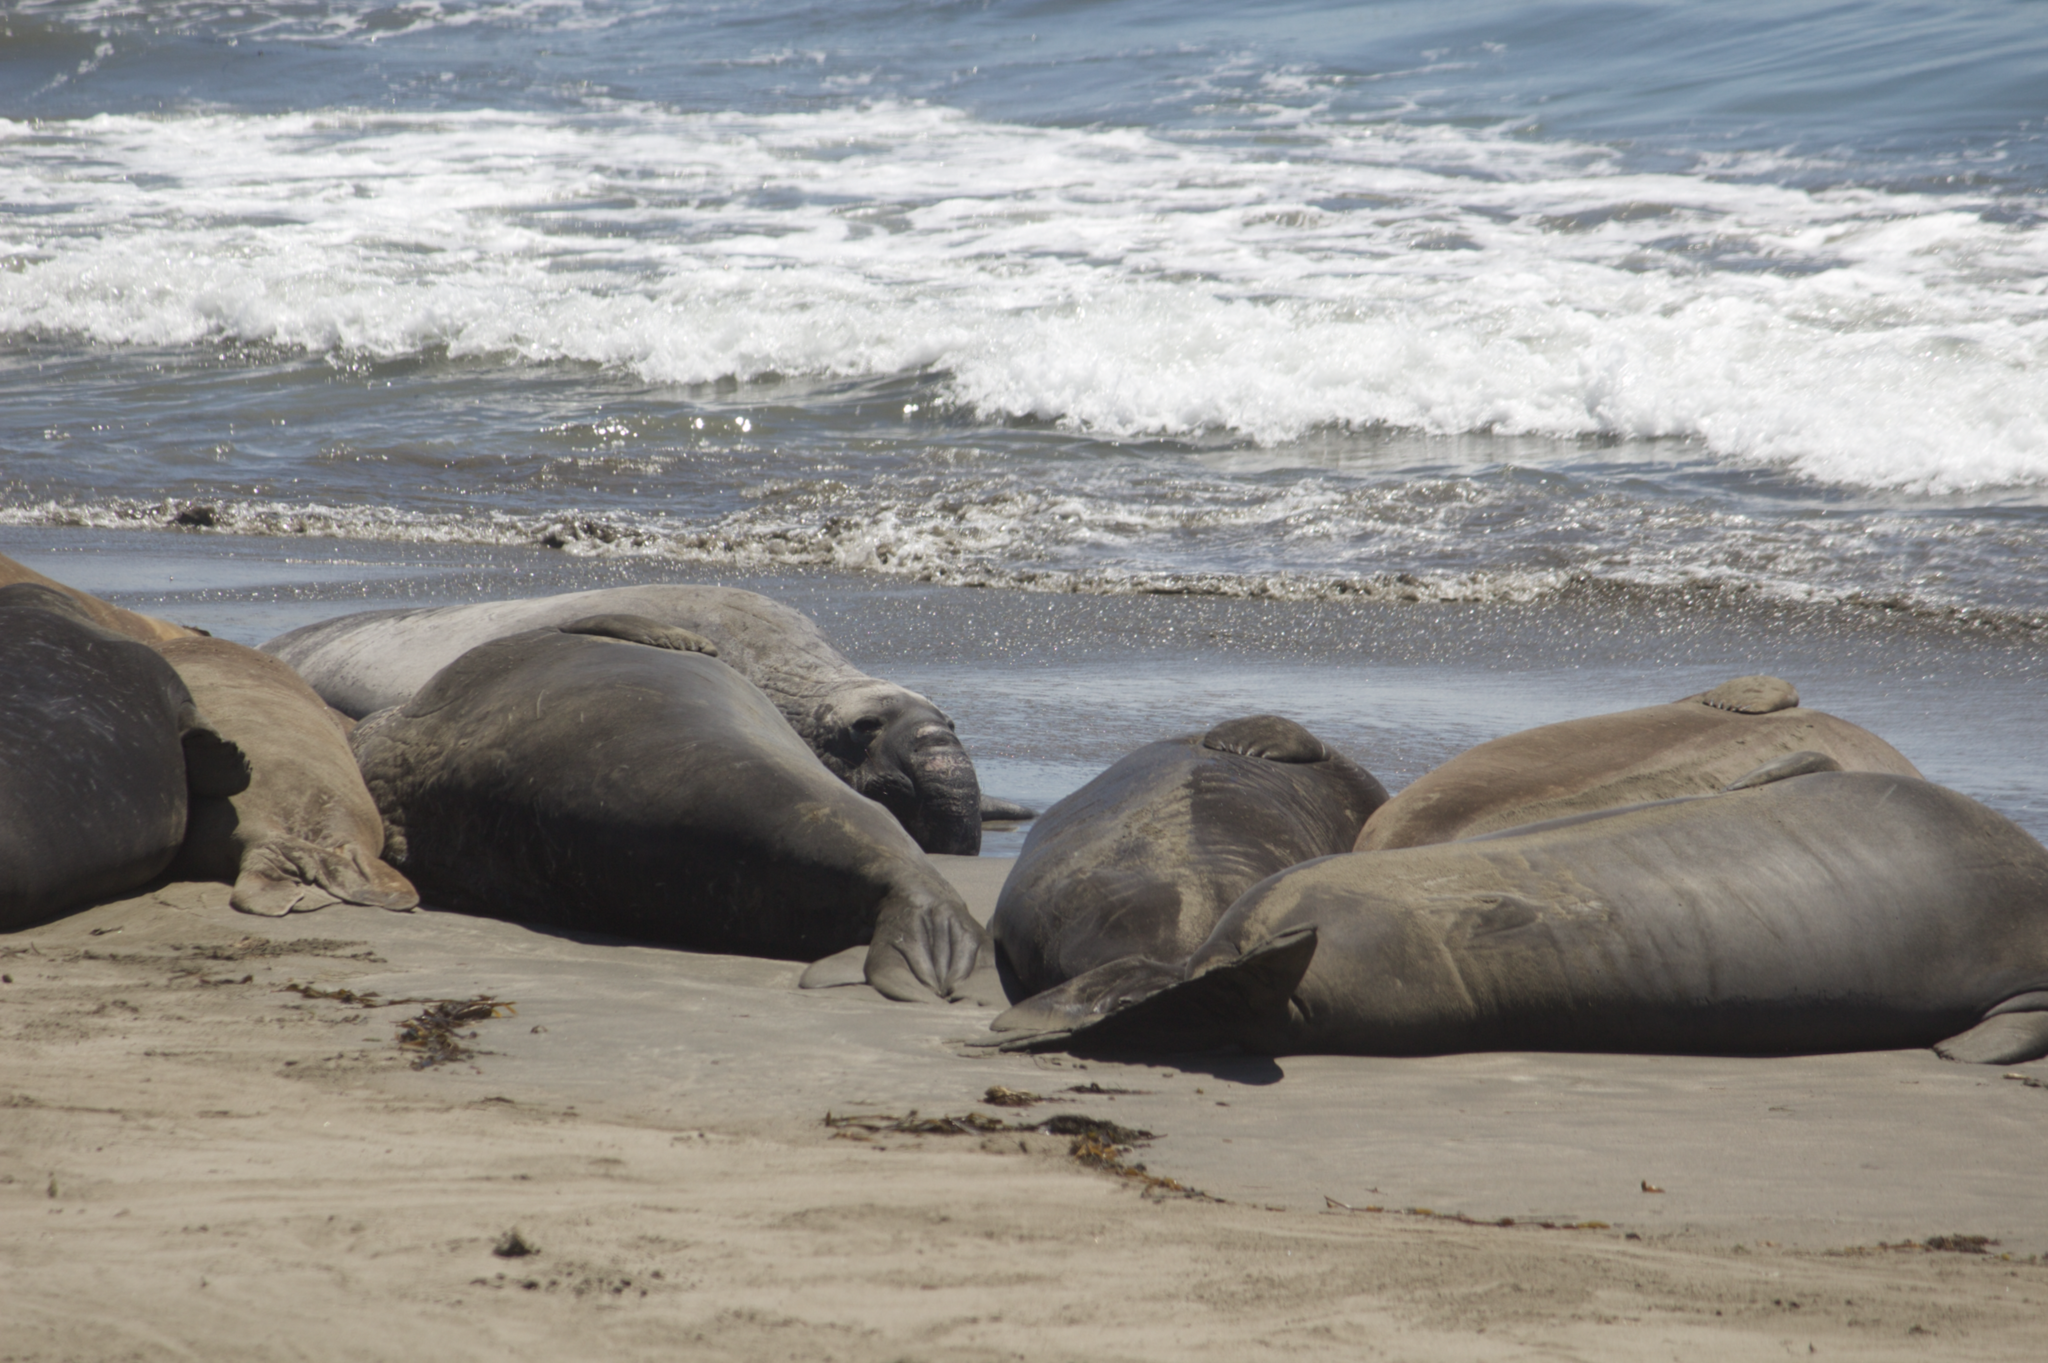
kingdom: Animalia
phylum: Chordata
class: Mammalia
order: Carnivora
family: Phocidae
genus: Mirounga
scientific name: Mirounga angustirostris
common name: Northern elephant seal
